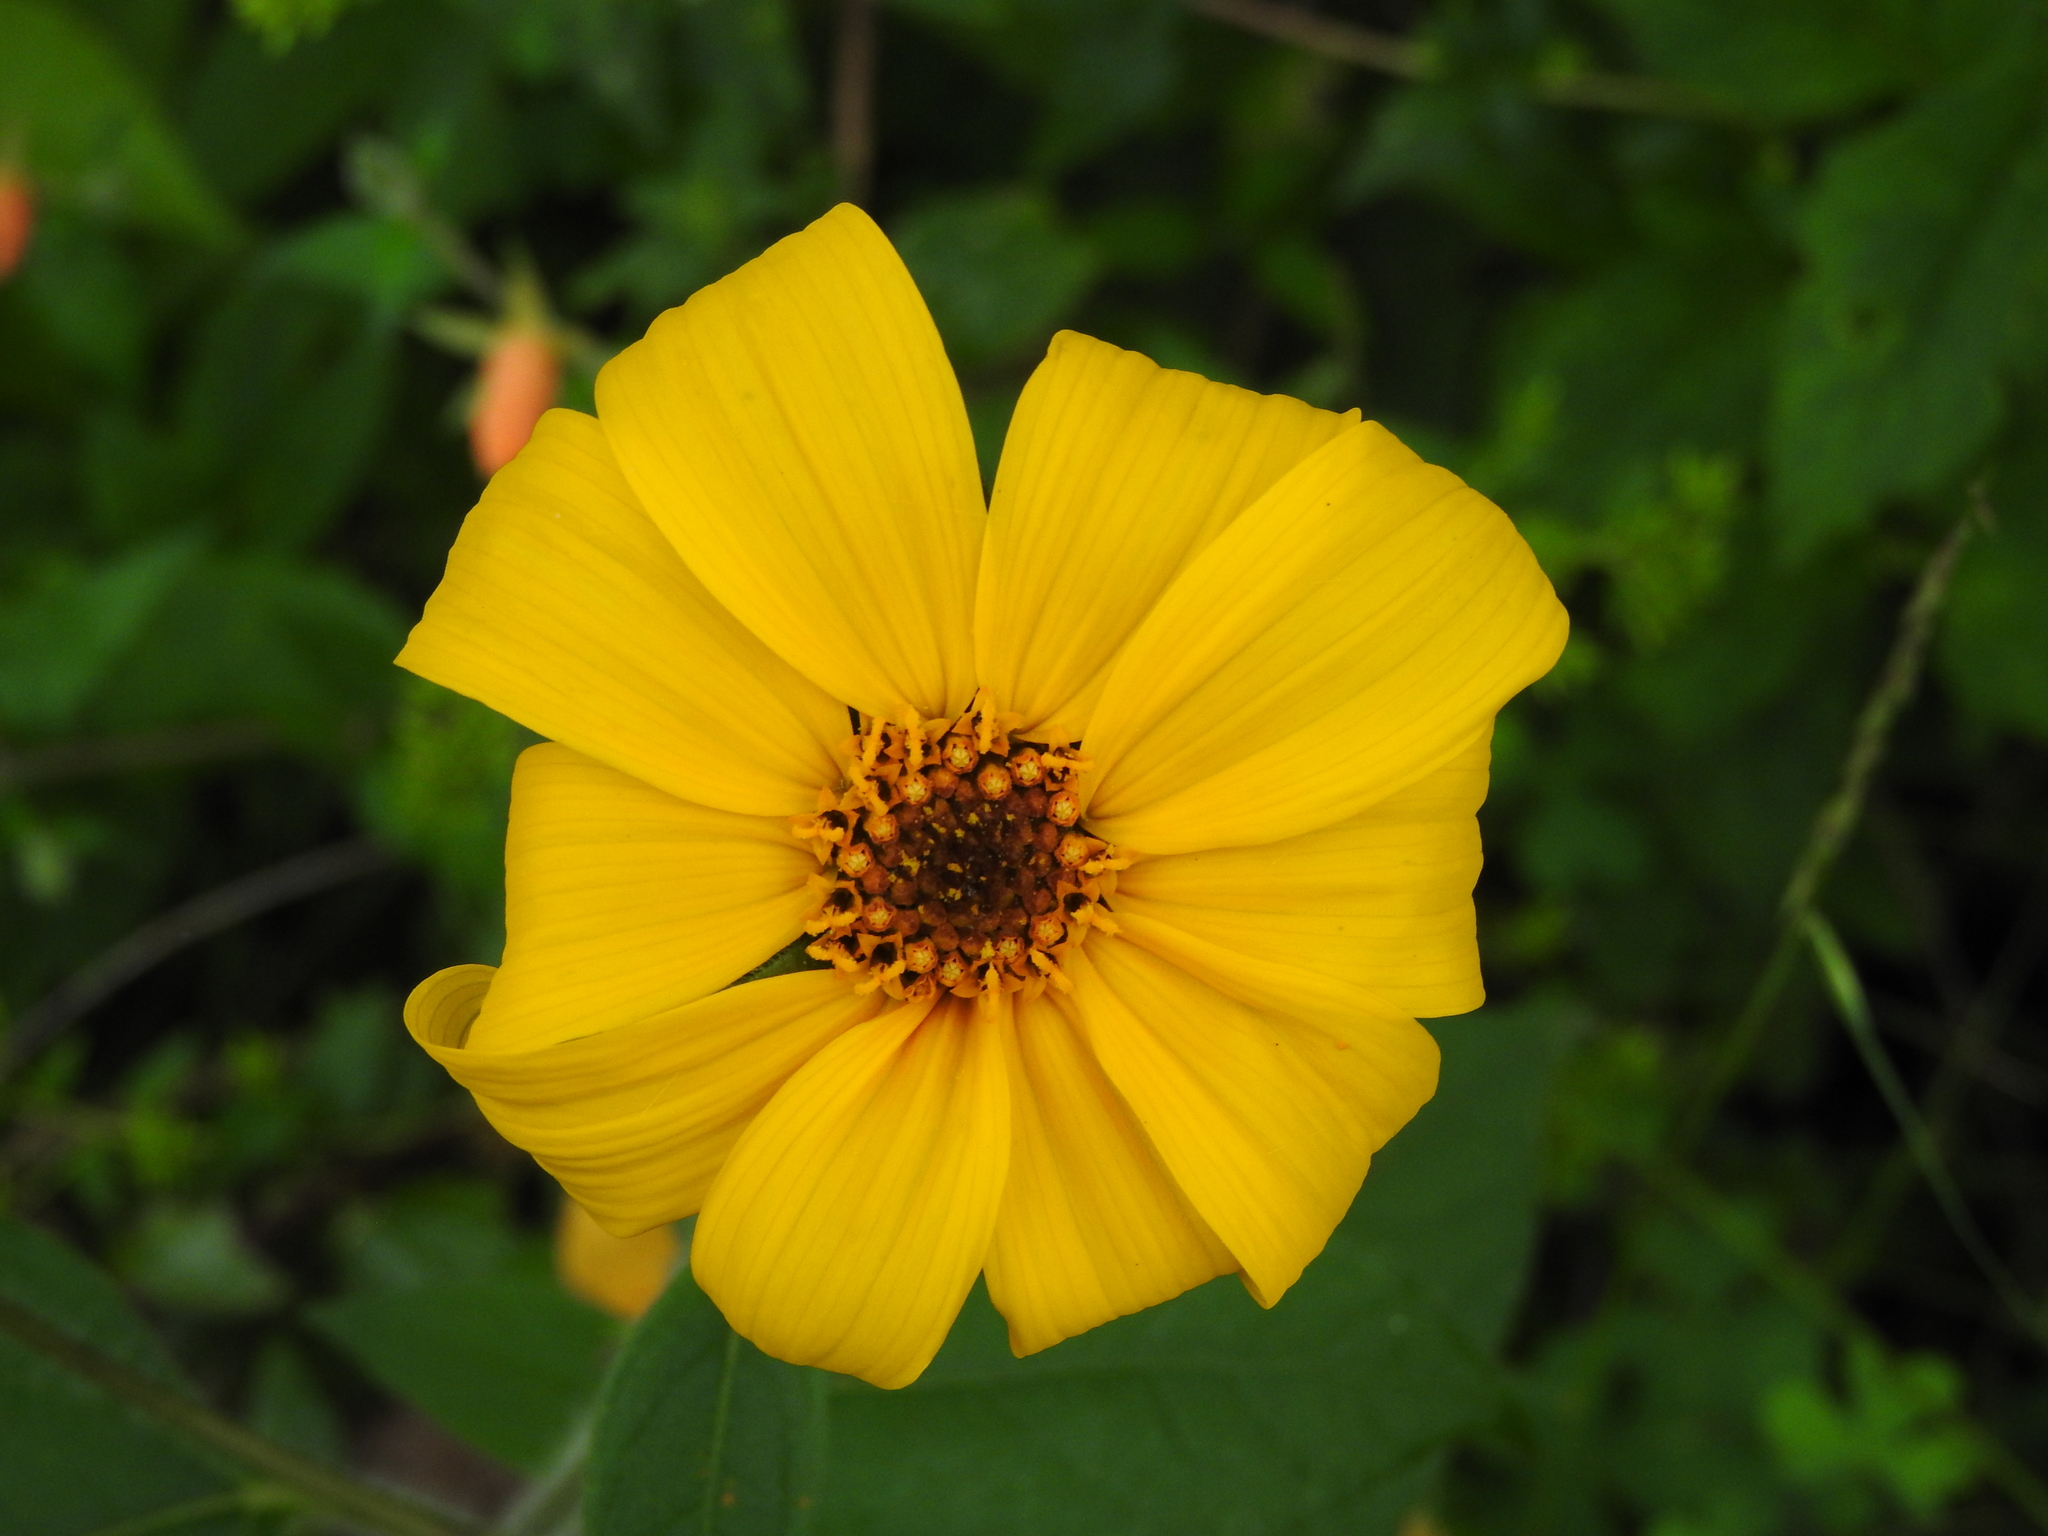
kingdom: Plantae
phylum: Tracheophyta
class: Magnoliopsida
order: Asterales
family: Asteraceae
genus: Tithonia
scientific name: Tithonia tubaeformis
